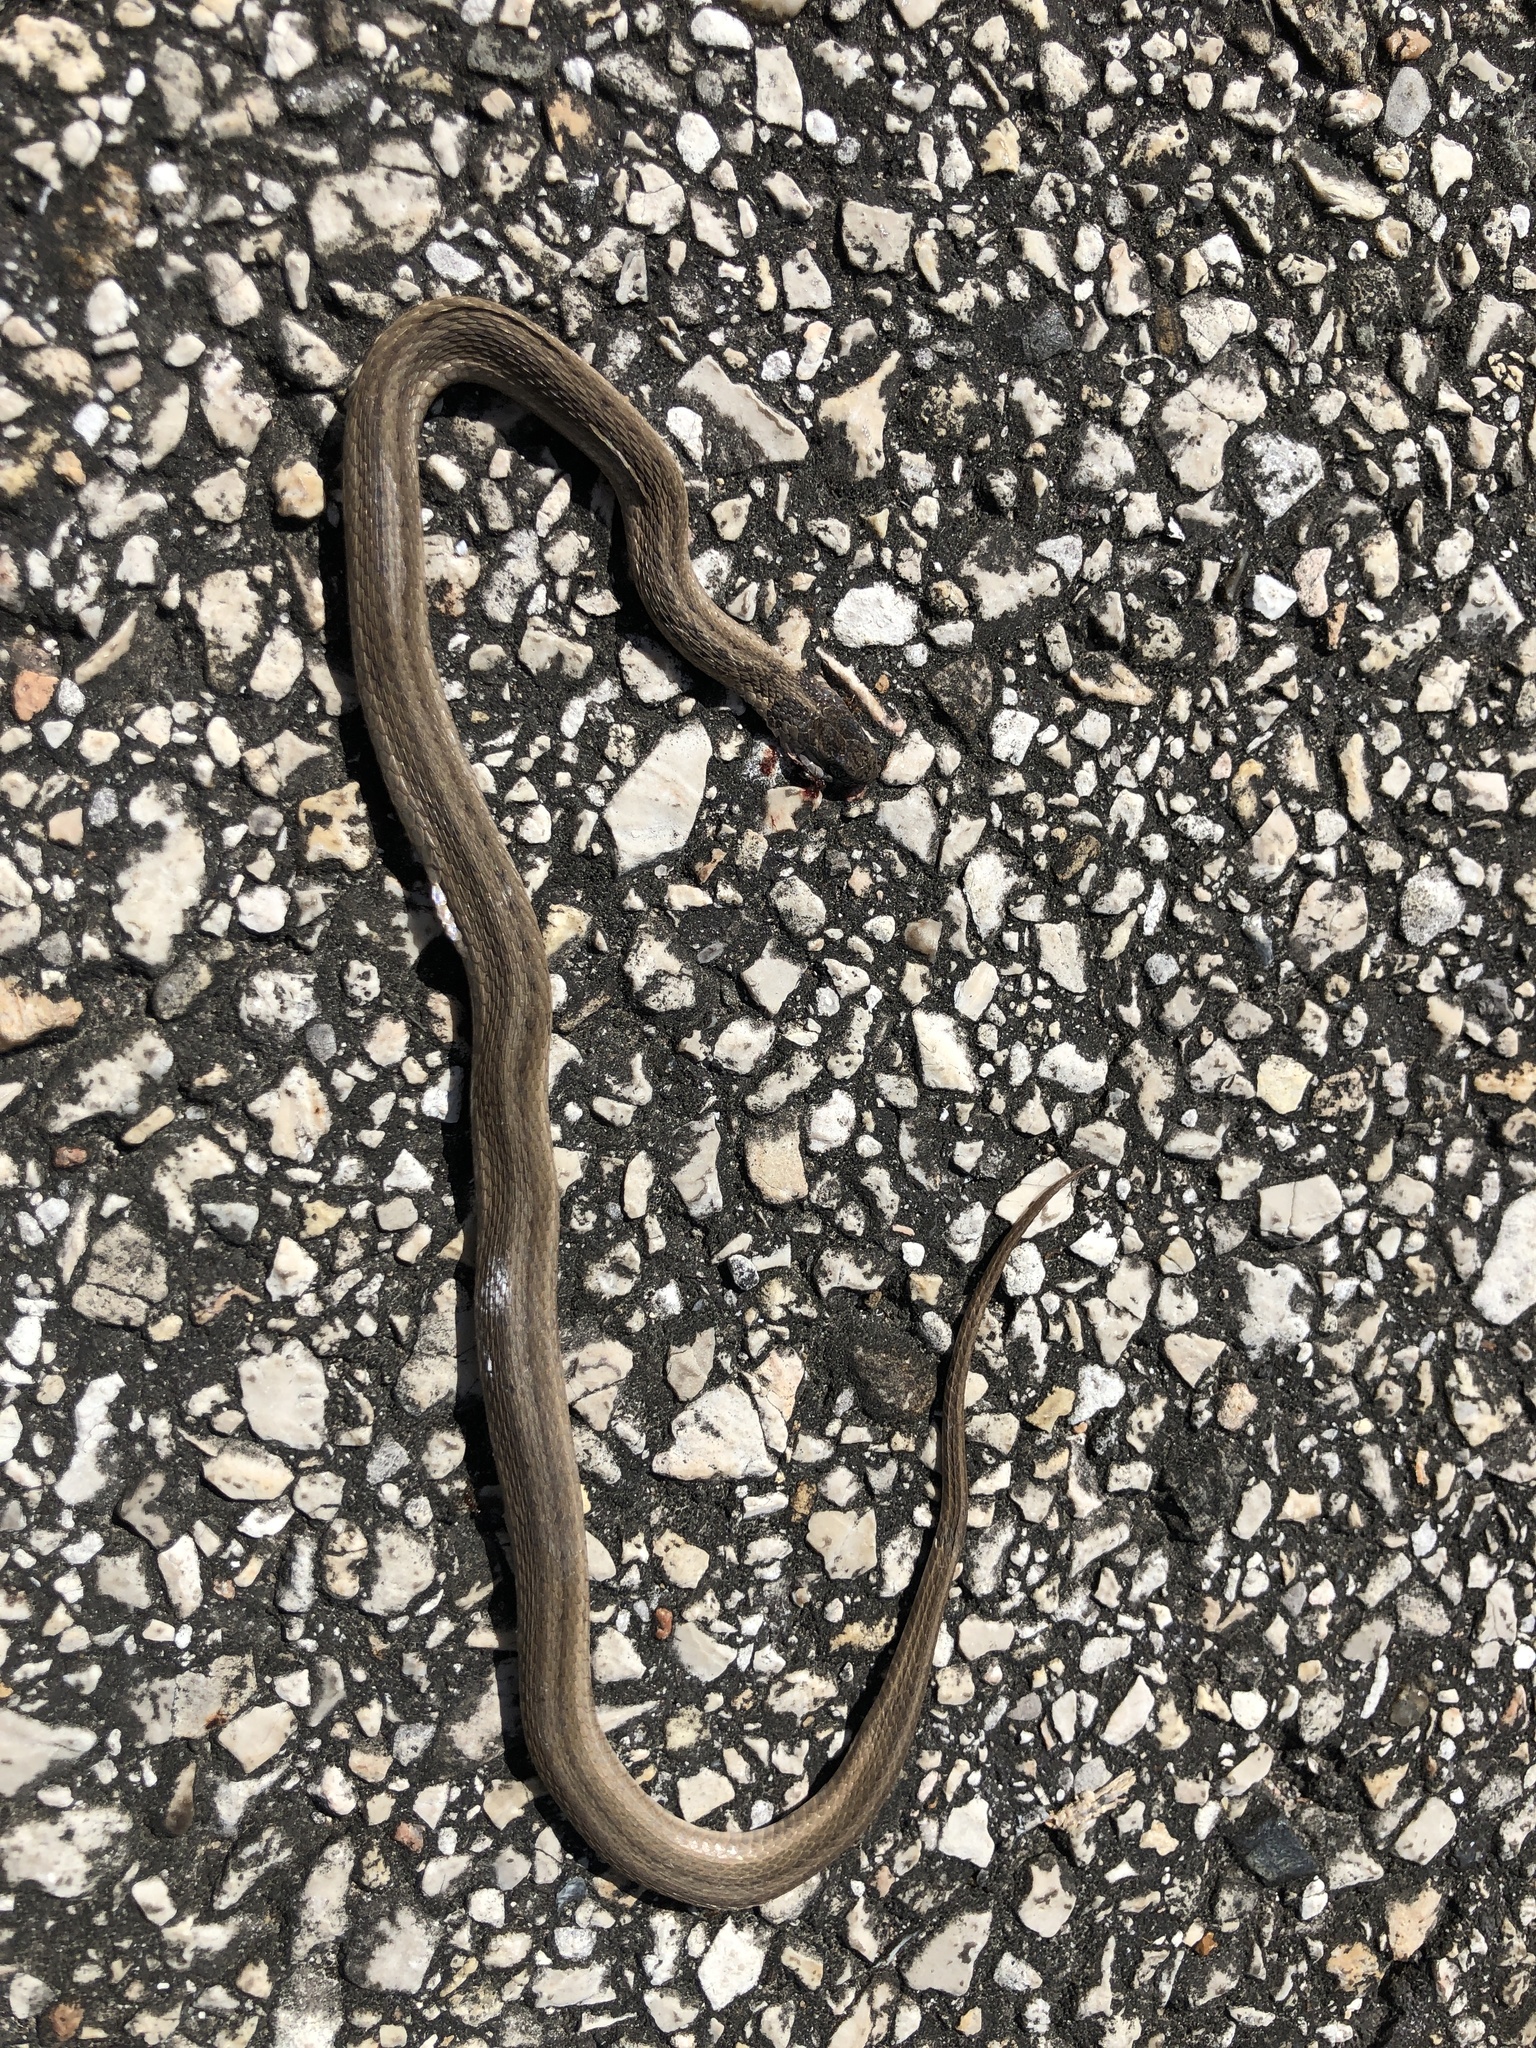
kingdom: Animalia
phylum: Chordata
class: Squamata
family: Colubridae
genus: Storeria
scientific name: Storeria dekayi
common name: (dekay’s) brown snake
